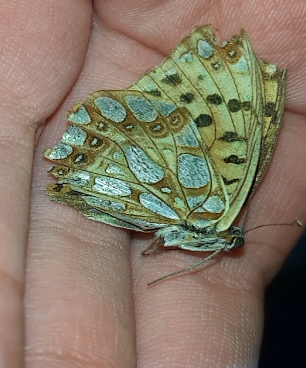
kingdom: Animalia
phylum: Arthropoda
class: Insecta
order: Lepidoptera
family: Nymphalidae
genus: Issoria
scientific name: Issoria lathonia
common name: Queen of spain fritillary
